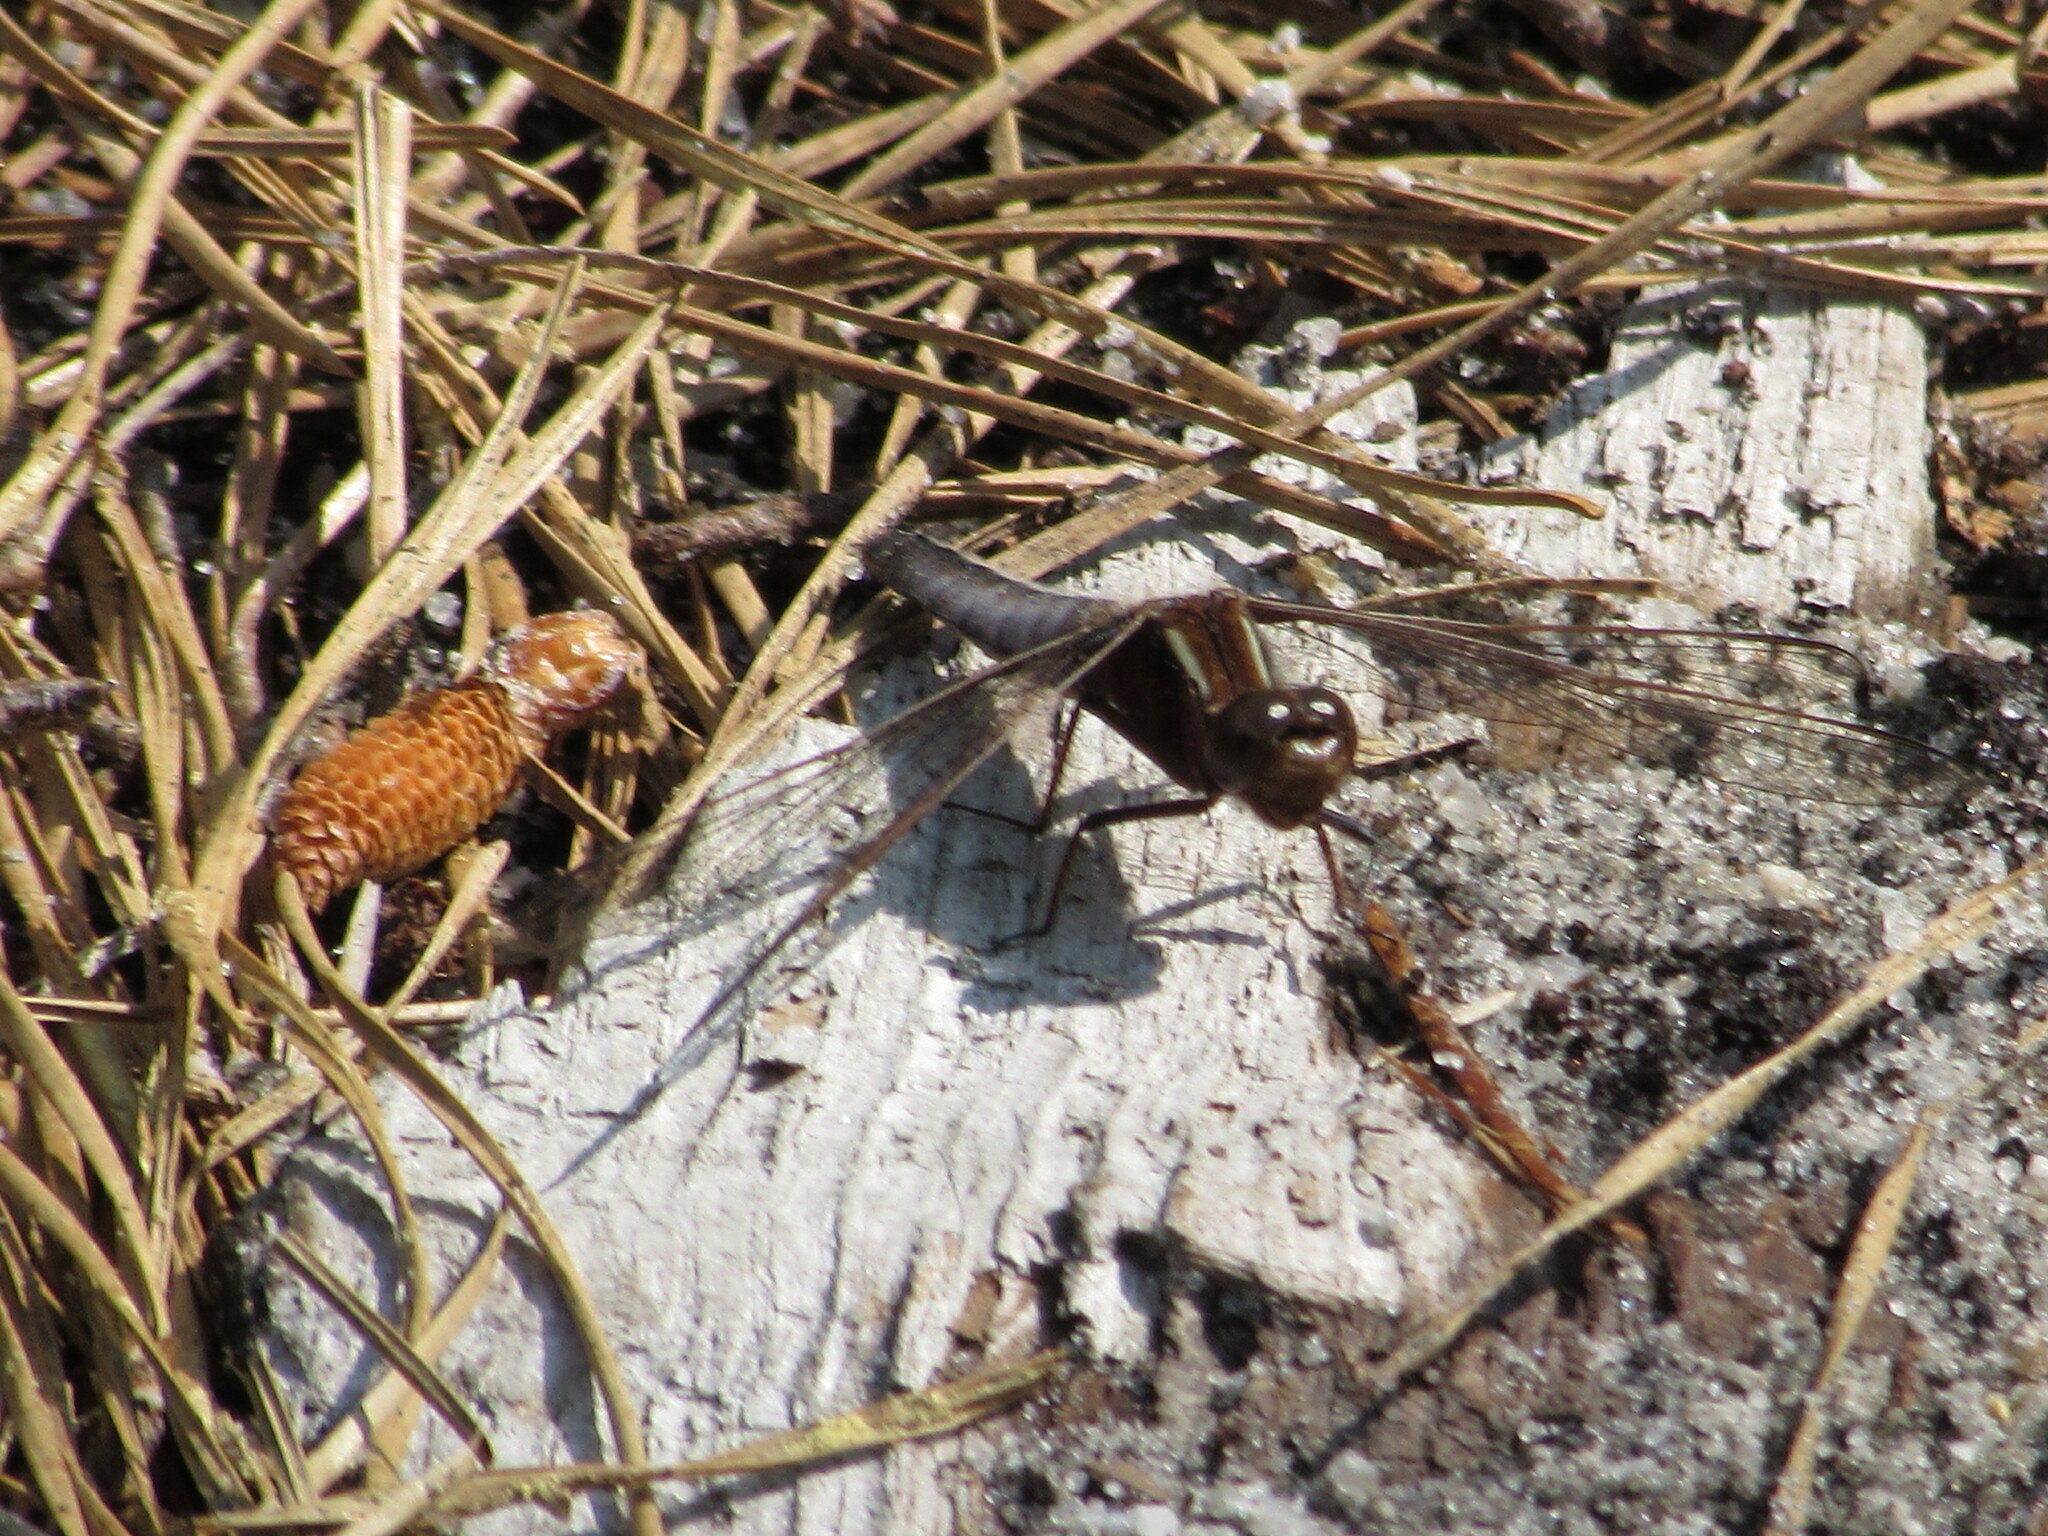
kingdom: Animalia
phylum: Arthropoda
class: Insecta
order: Odonata
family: Libellulidae
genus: Ladona
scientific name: Ladona exusta
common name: Libellule embrasée
